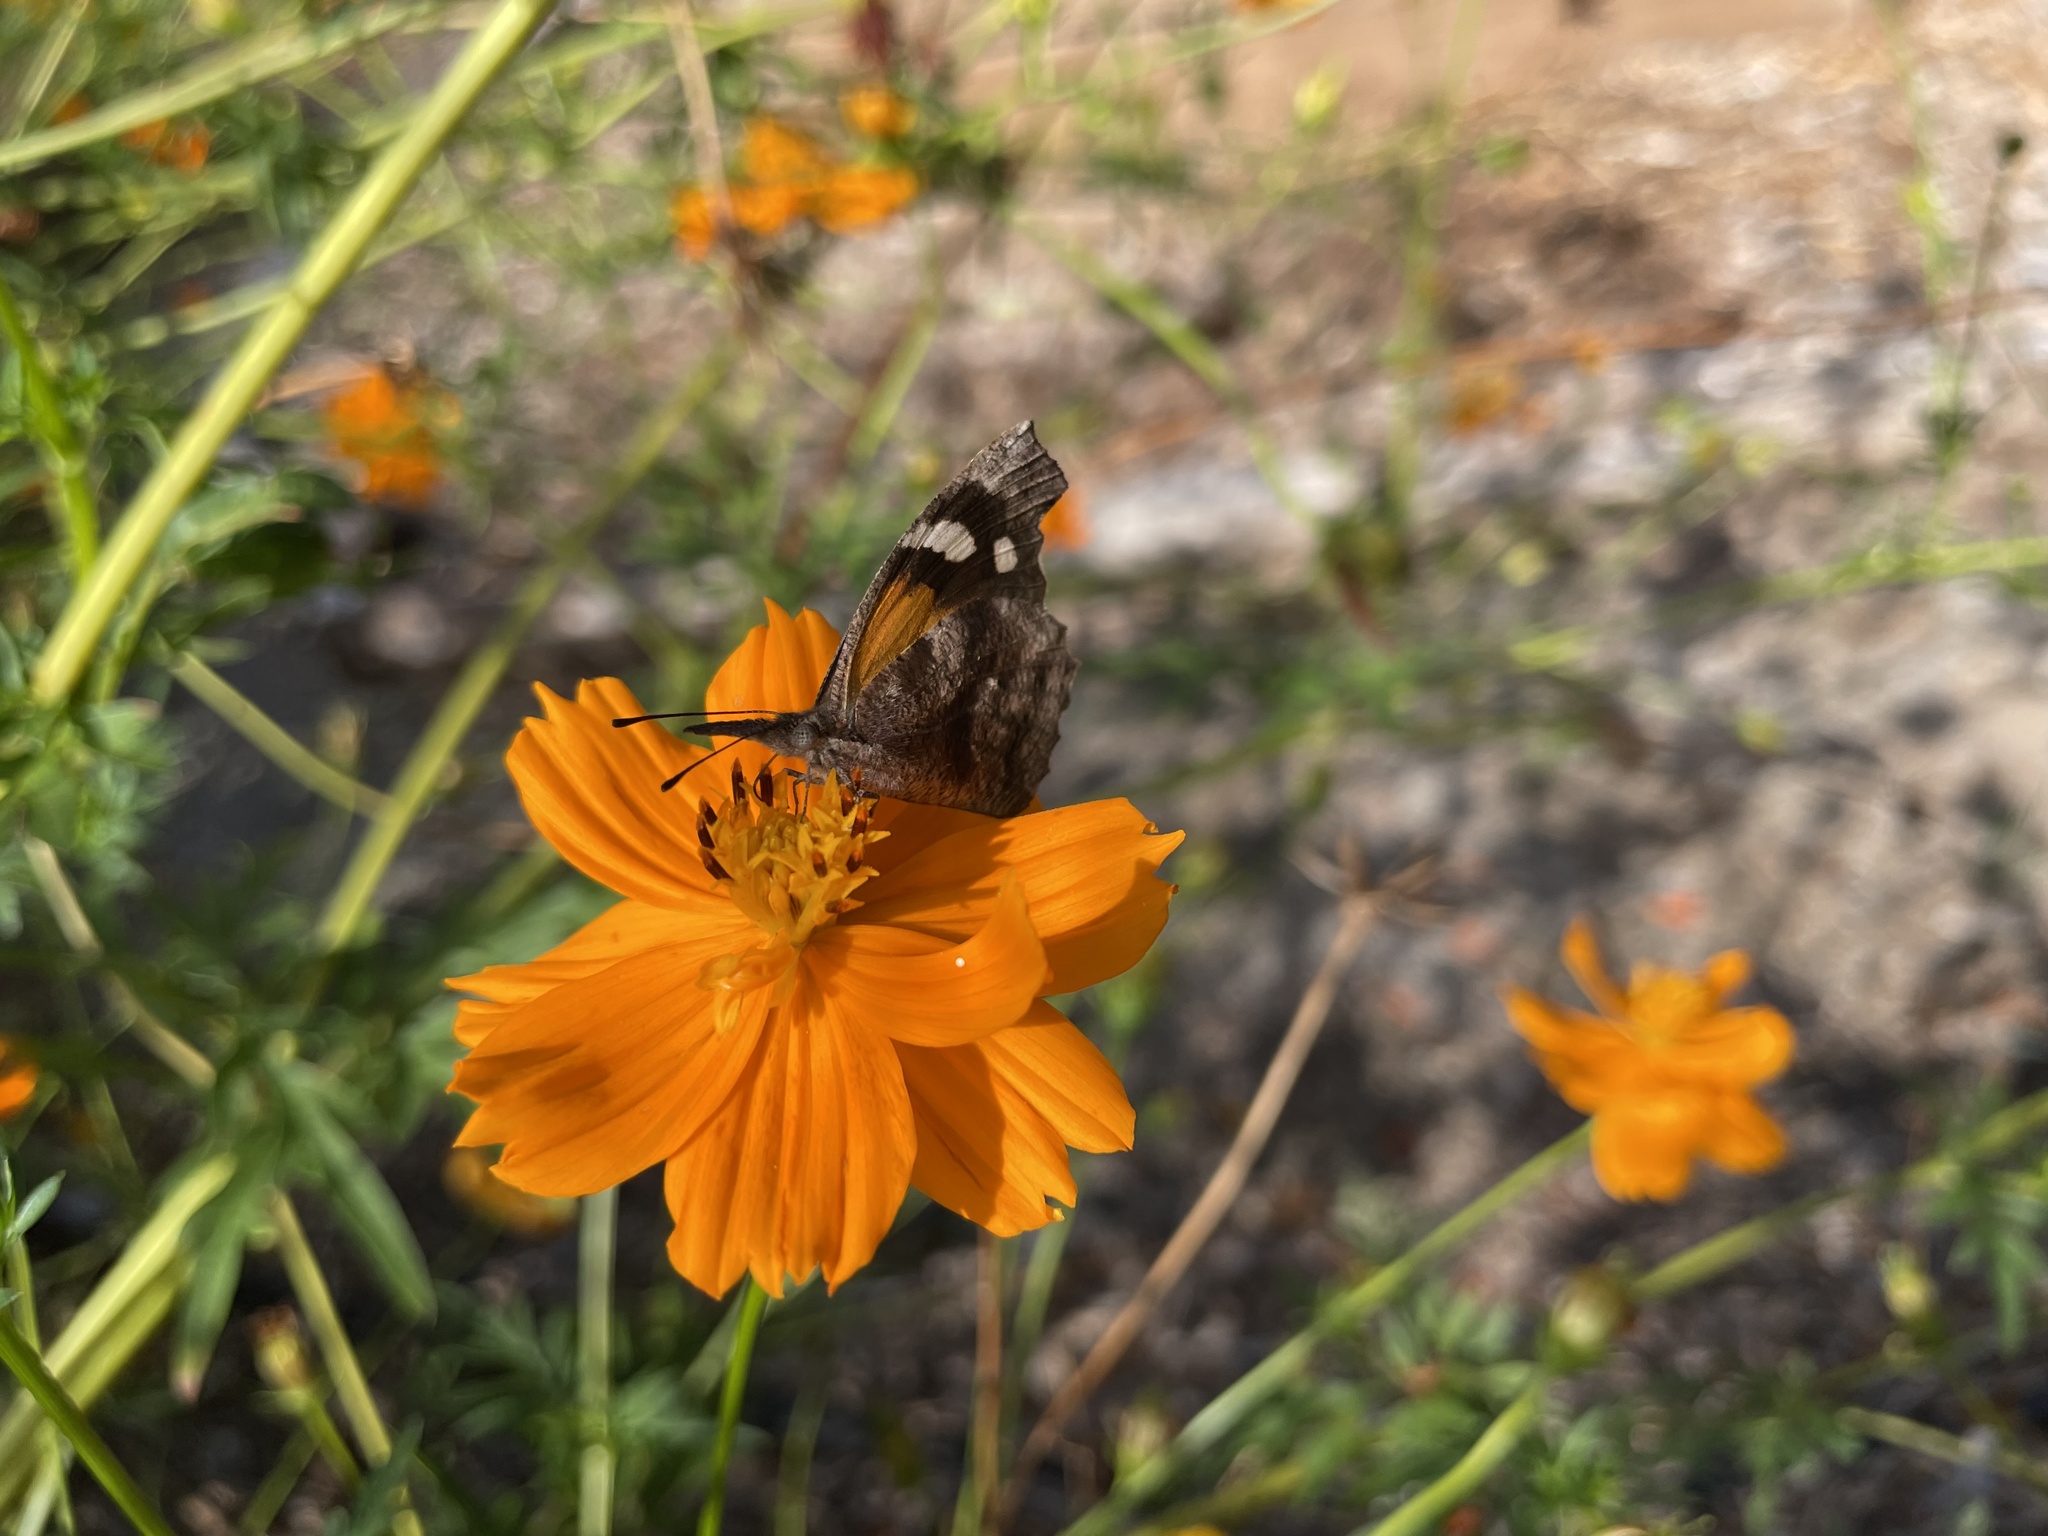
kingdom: Animalia
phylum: Arthropoda
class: Insecta
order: Lepidoptera
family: Nymphalidae
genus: Libytheana
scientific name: Libytheana carinenta
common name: American snout
